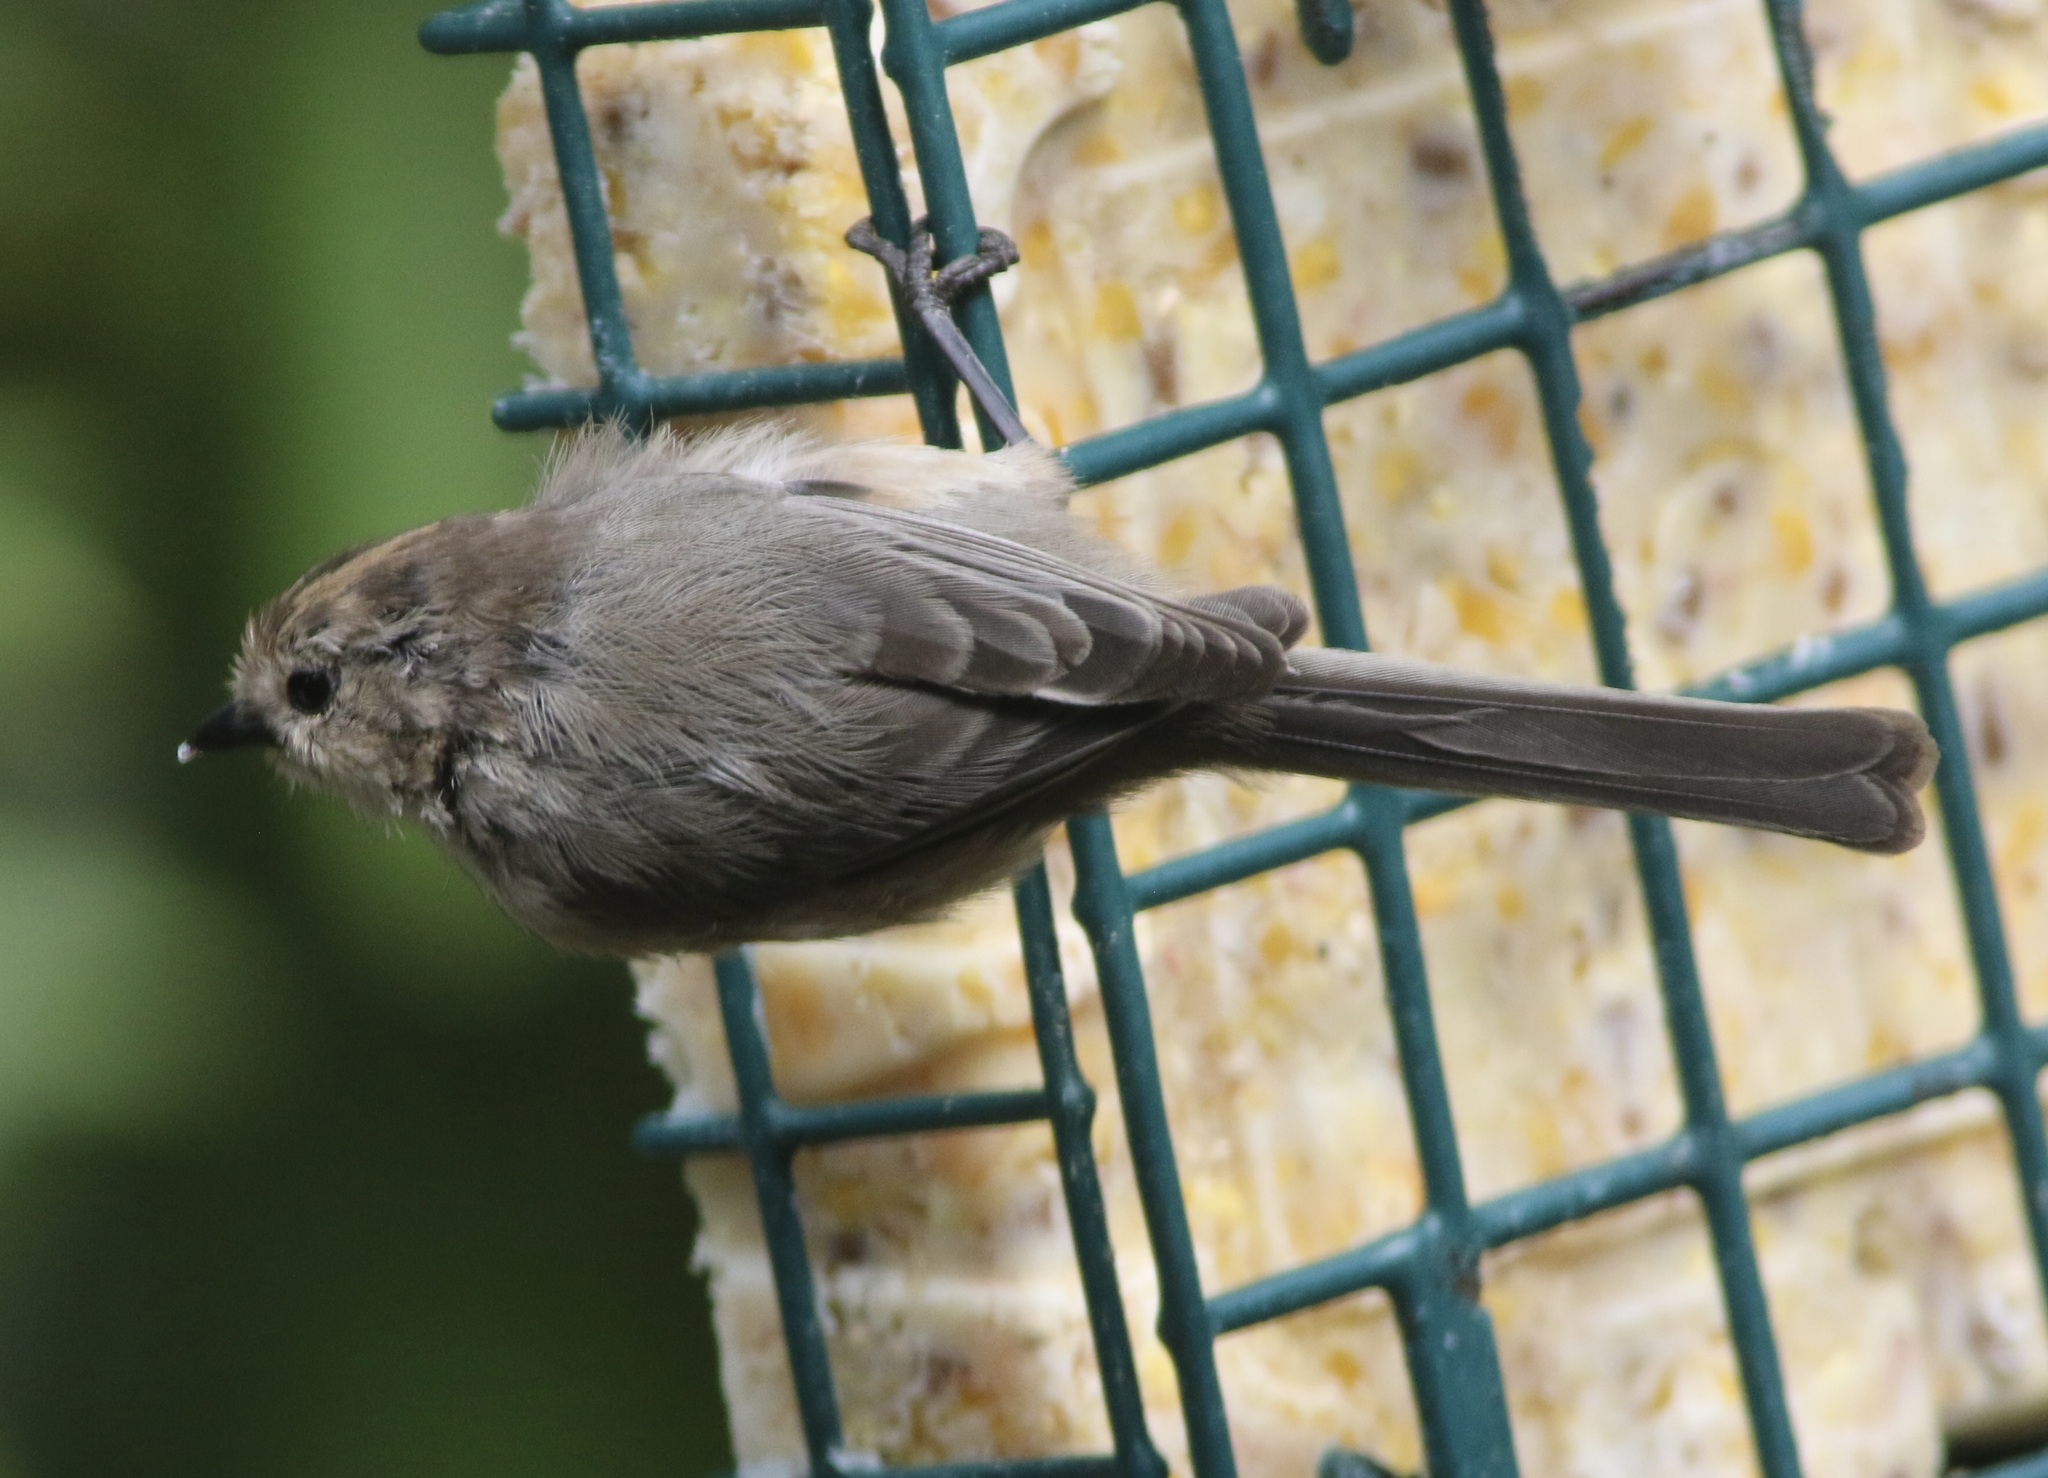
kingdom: Animalia
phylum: Chordata
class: Aves
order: Passeriformes
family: Aegithalidae
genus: Psaltriparus
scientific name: Psaltriparus minimus
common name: American bushtit
